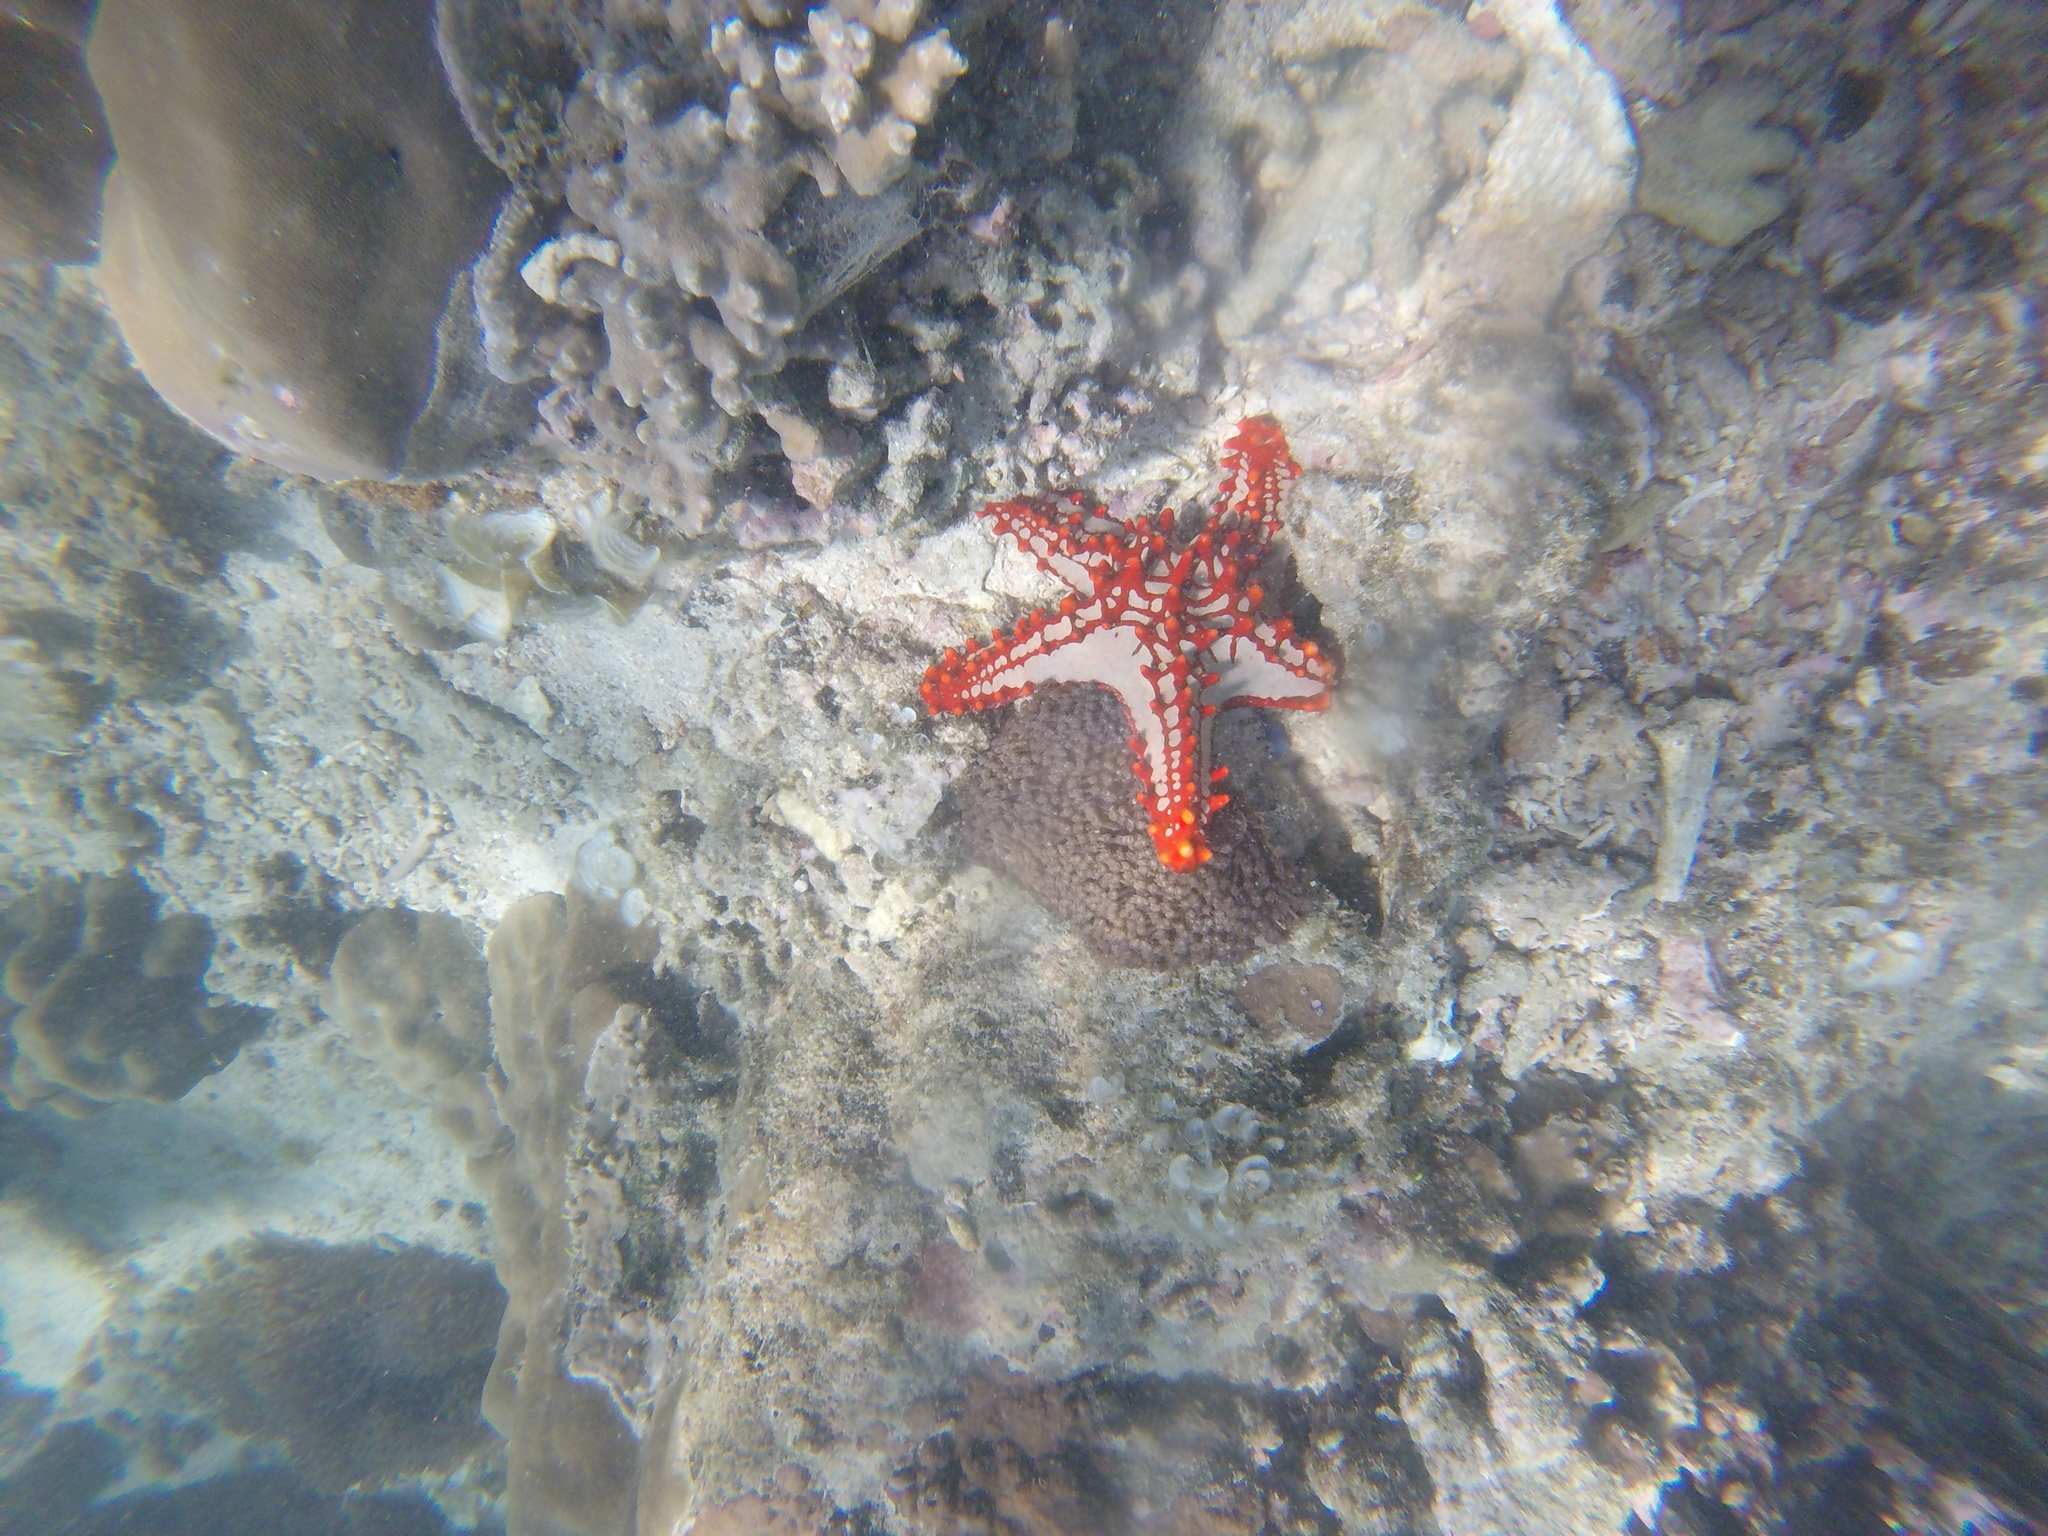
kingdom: Animalia
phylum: Echinodermata
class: Asteroidea
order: Valvatida
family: Oreasteridae
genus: Protoreaster
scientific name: Protoreaster lincki
